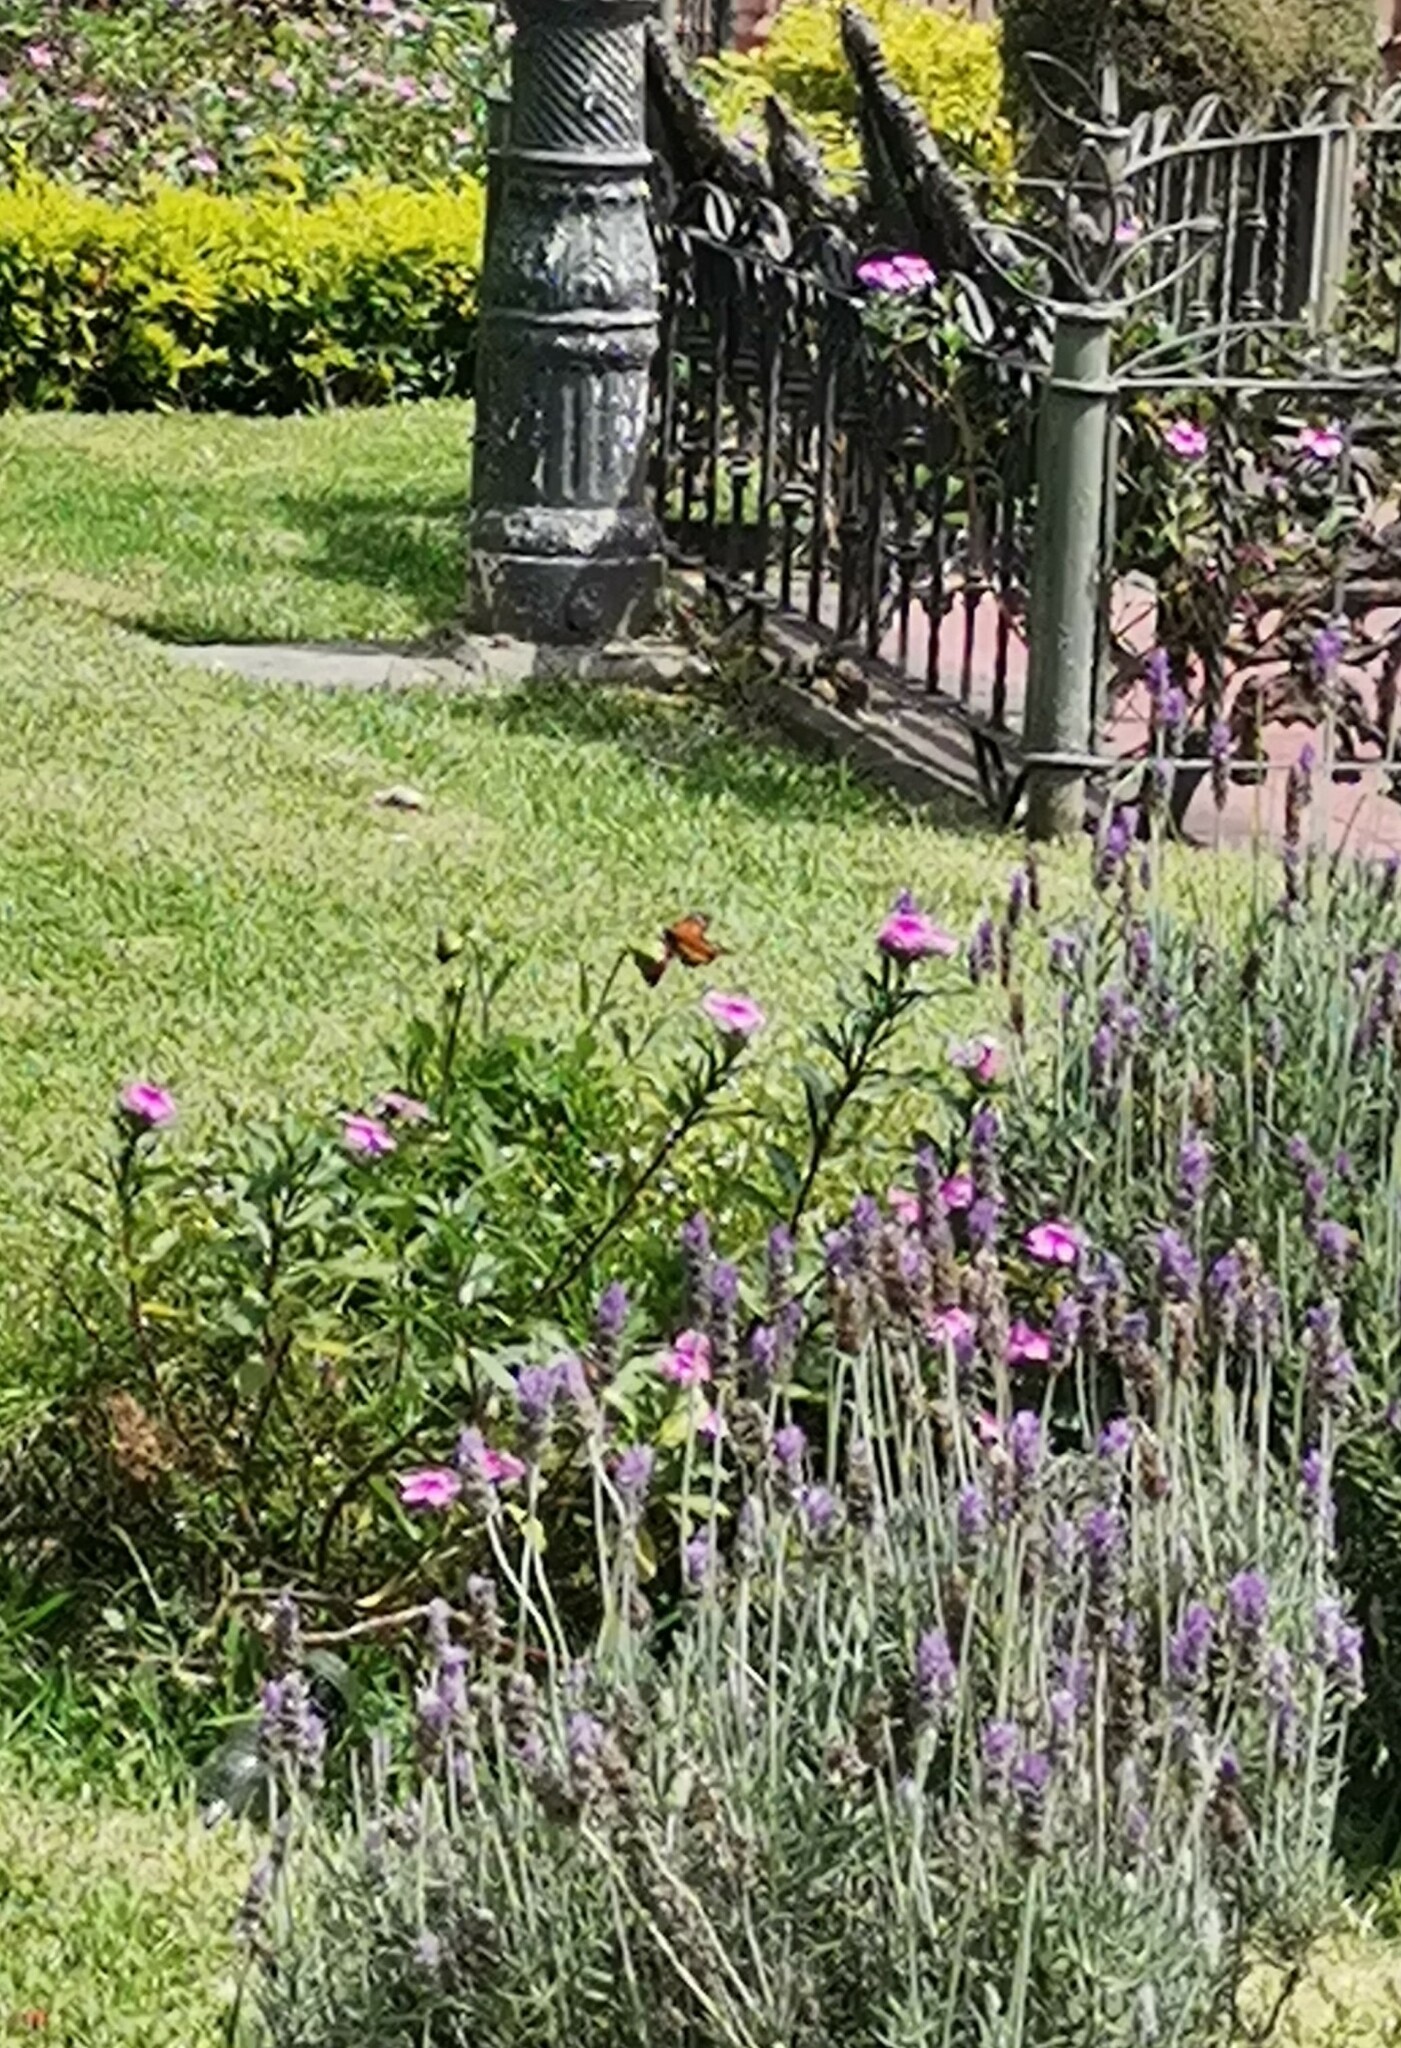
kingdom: Animalia
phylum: Arthropoda
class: Insecta
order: Lepidoptera
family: Nymphalidae
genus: Danaus
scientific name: Danaus plexippus
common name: Monarch
